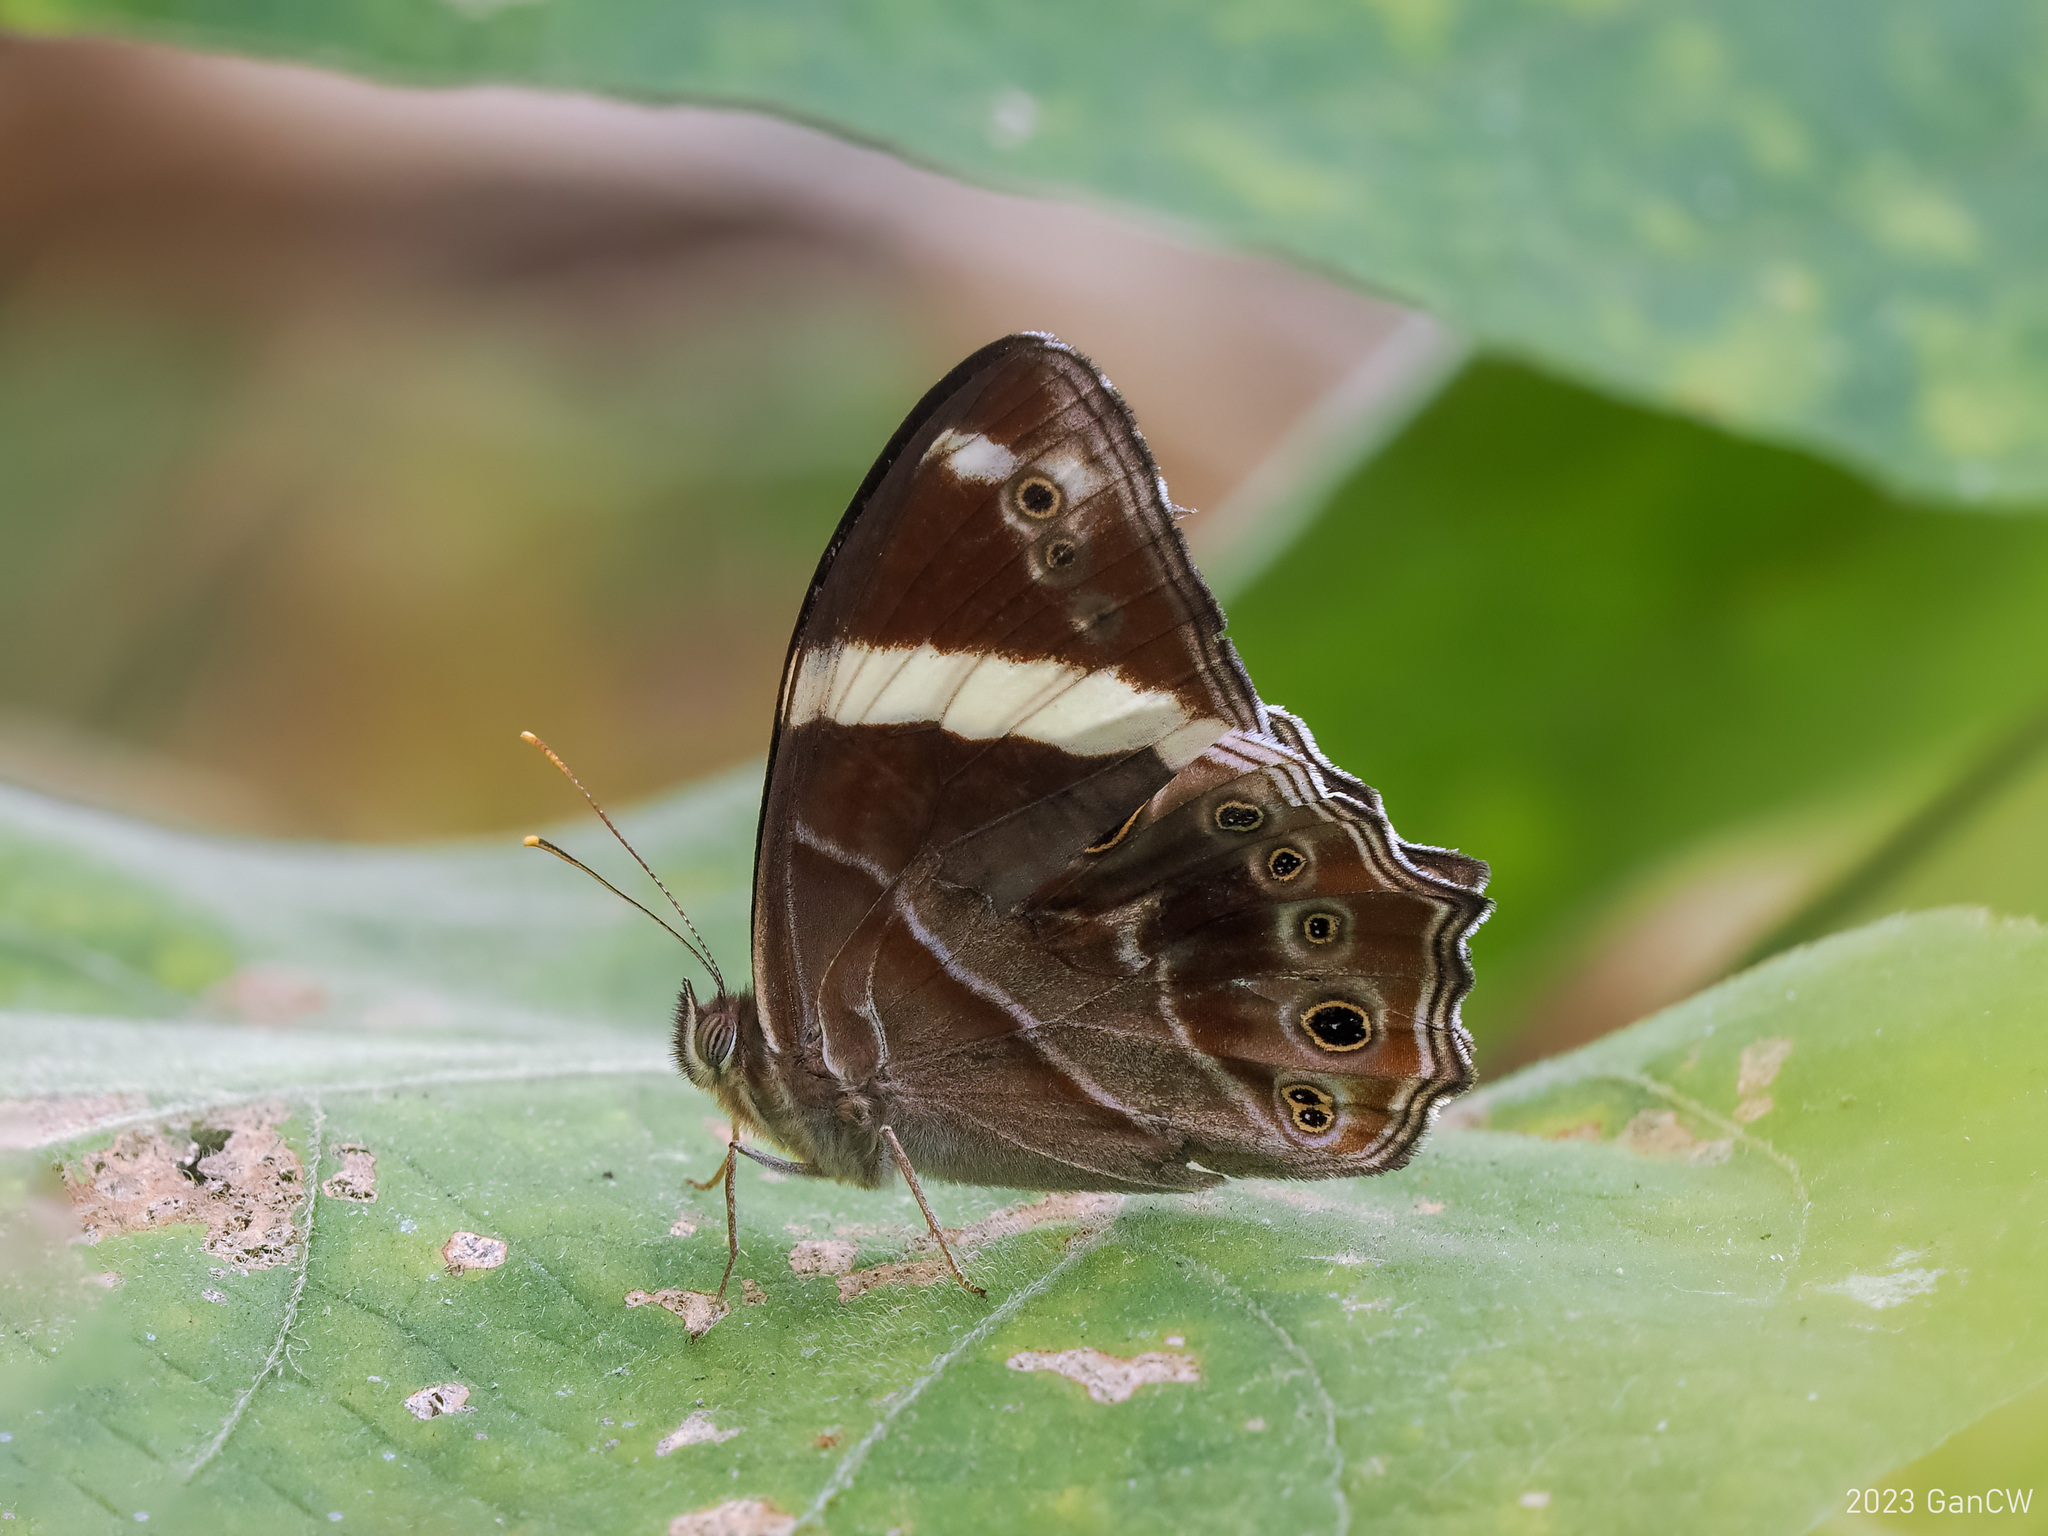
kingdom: Animalia
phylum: Arthropoda
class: Insecta
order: Lepidoptera
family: Nymphalidae
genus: Lethe
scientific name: Lethe confusa
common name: Banded treebrown
